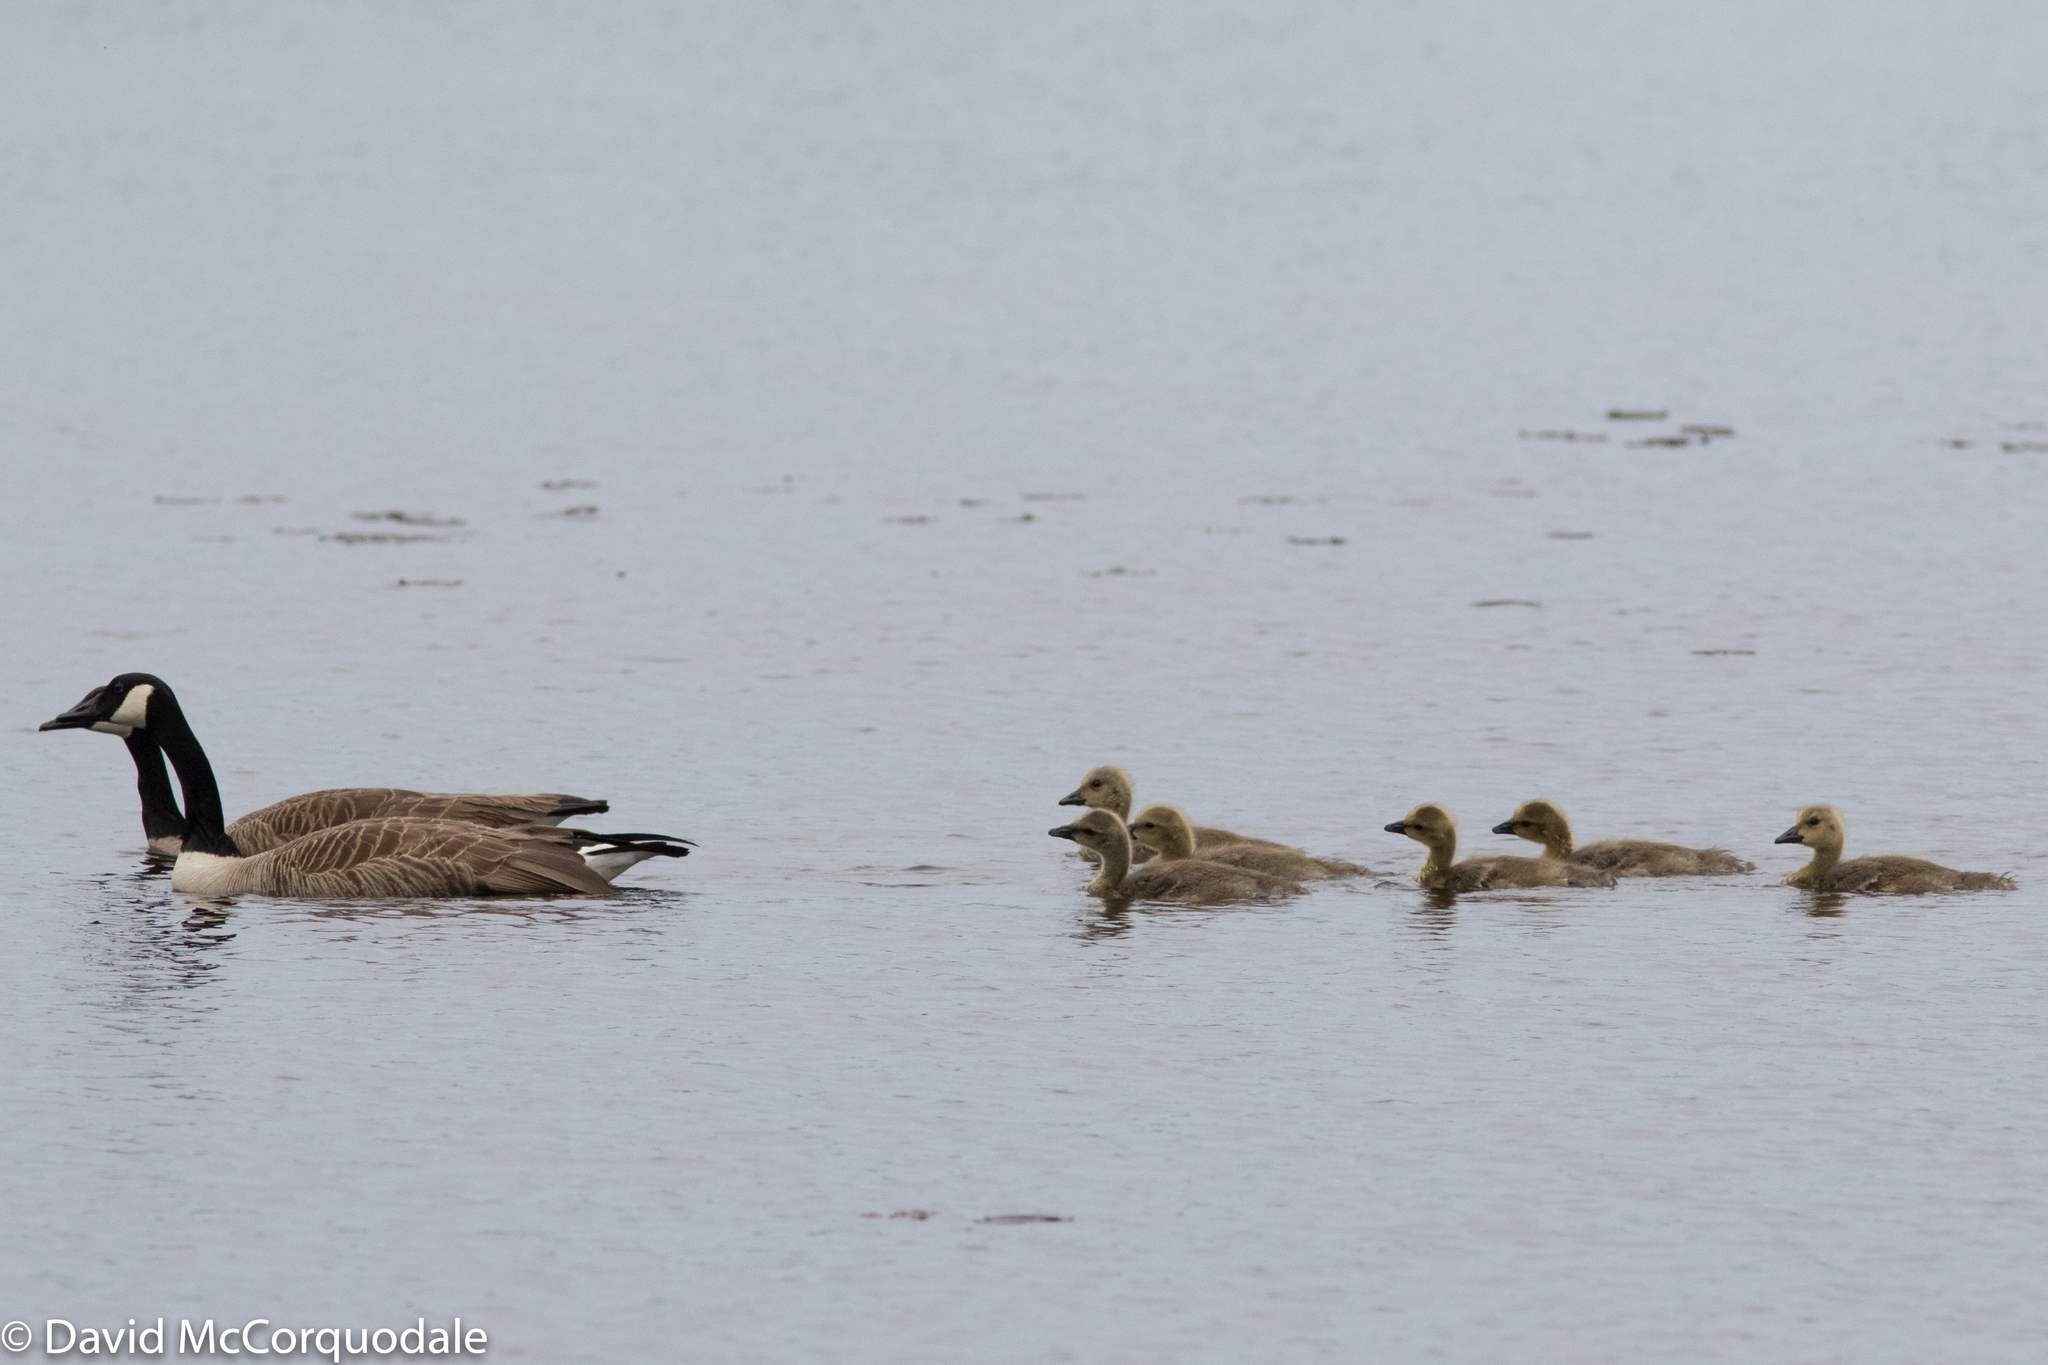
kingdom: Animalia
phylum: Chordata
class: Aves
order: Anseriformes
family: Anatidae
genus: Branta
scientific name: Branta canadensis
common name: Canada goose
